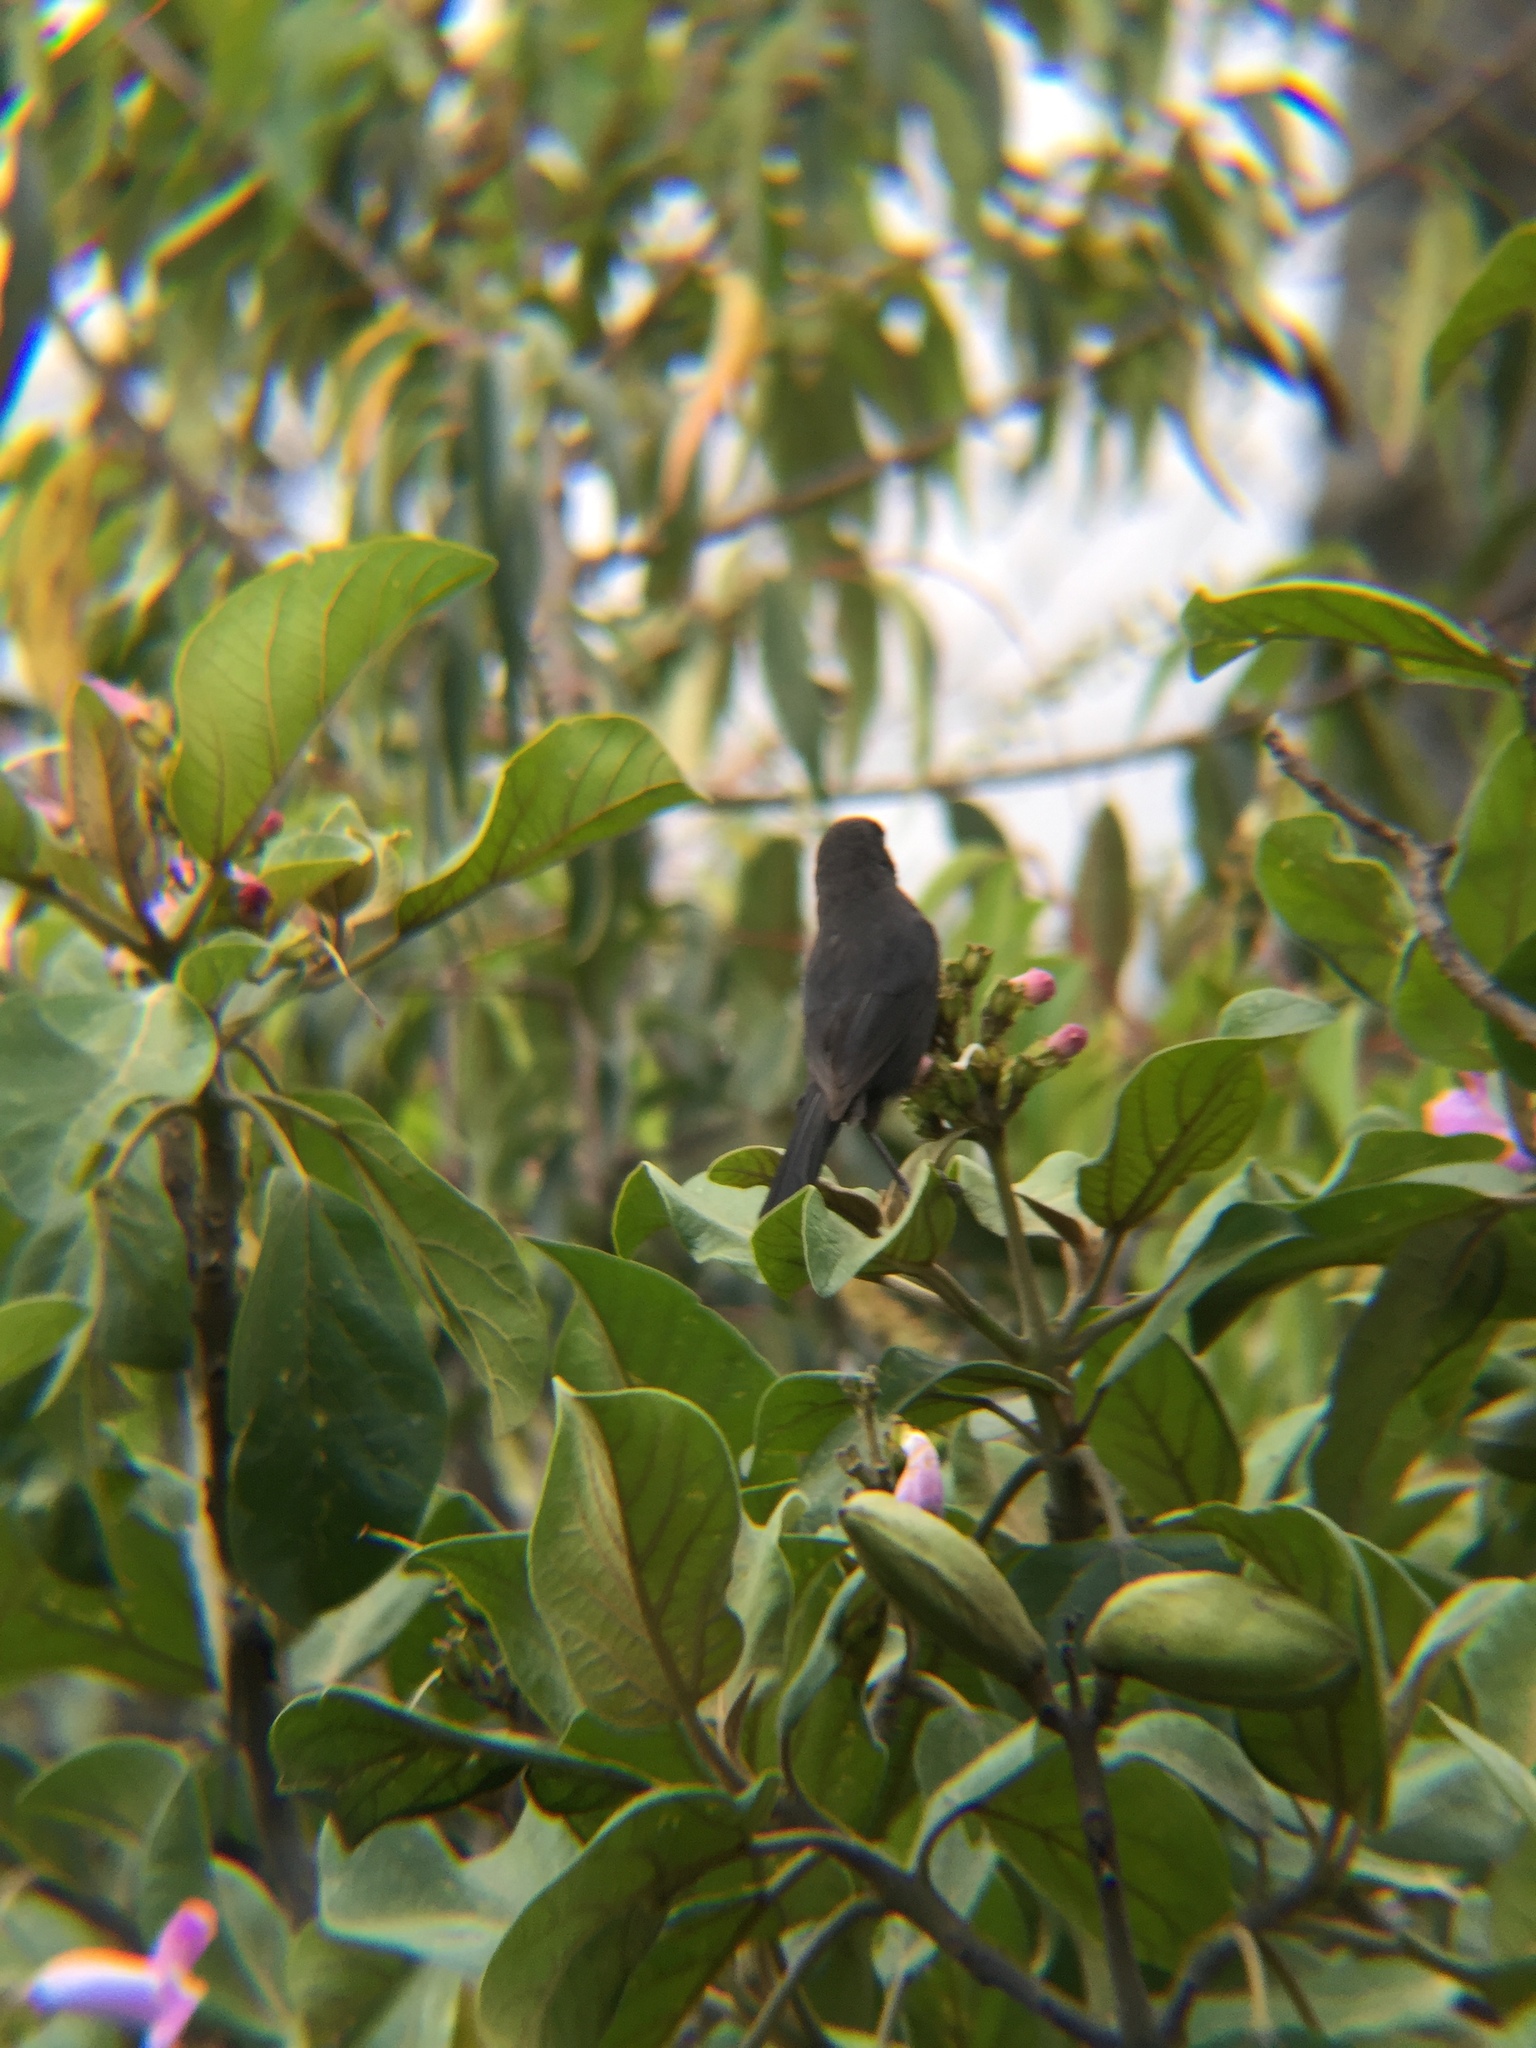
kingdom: Animalia
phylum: Chordata
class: Aves
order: Passeriformes
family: Thraupidae
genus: Diglossa
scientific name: Diglossa humeralis
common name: Black flowerpiercer
